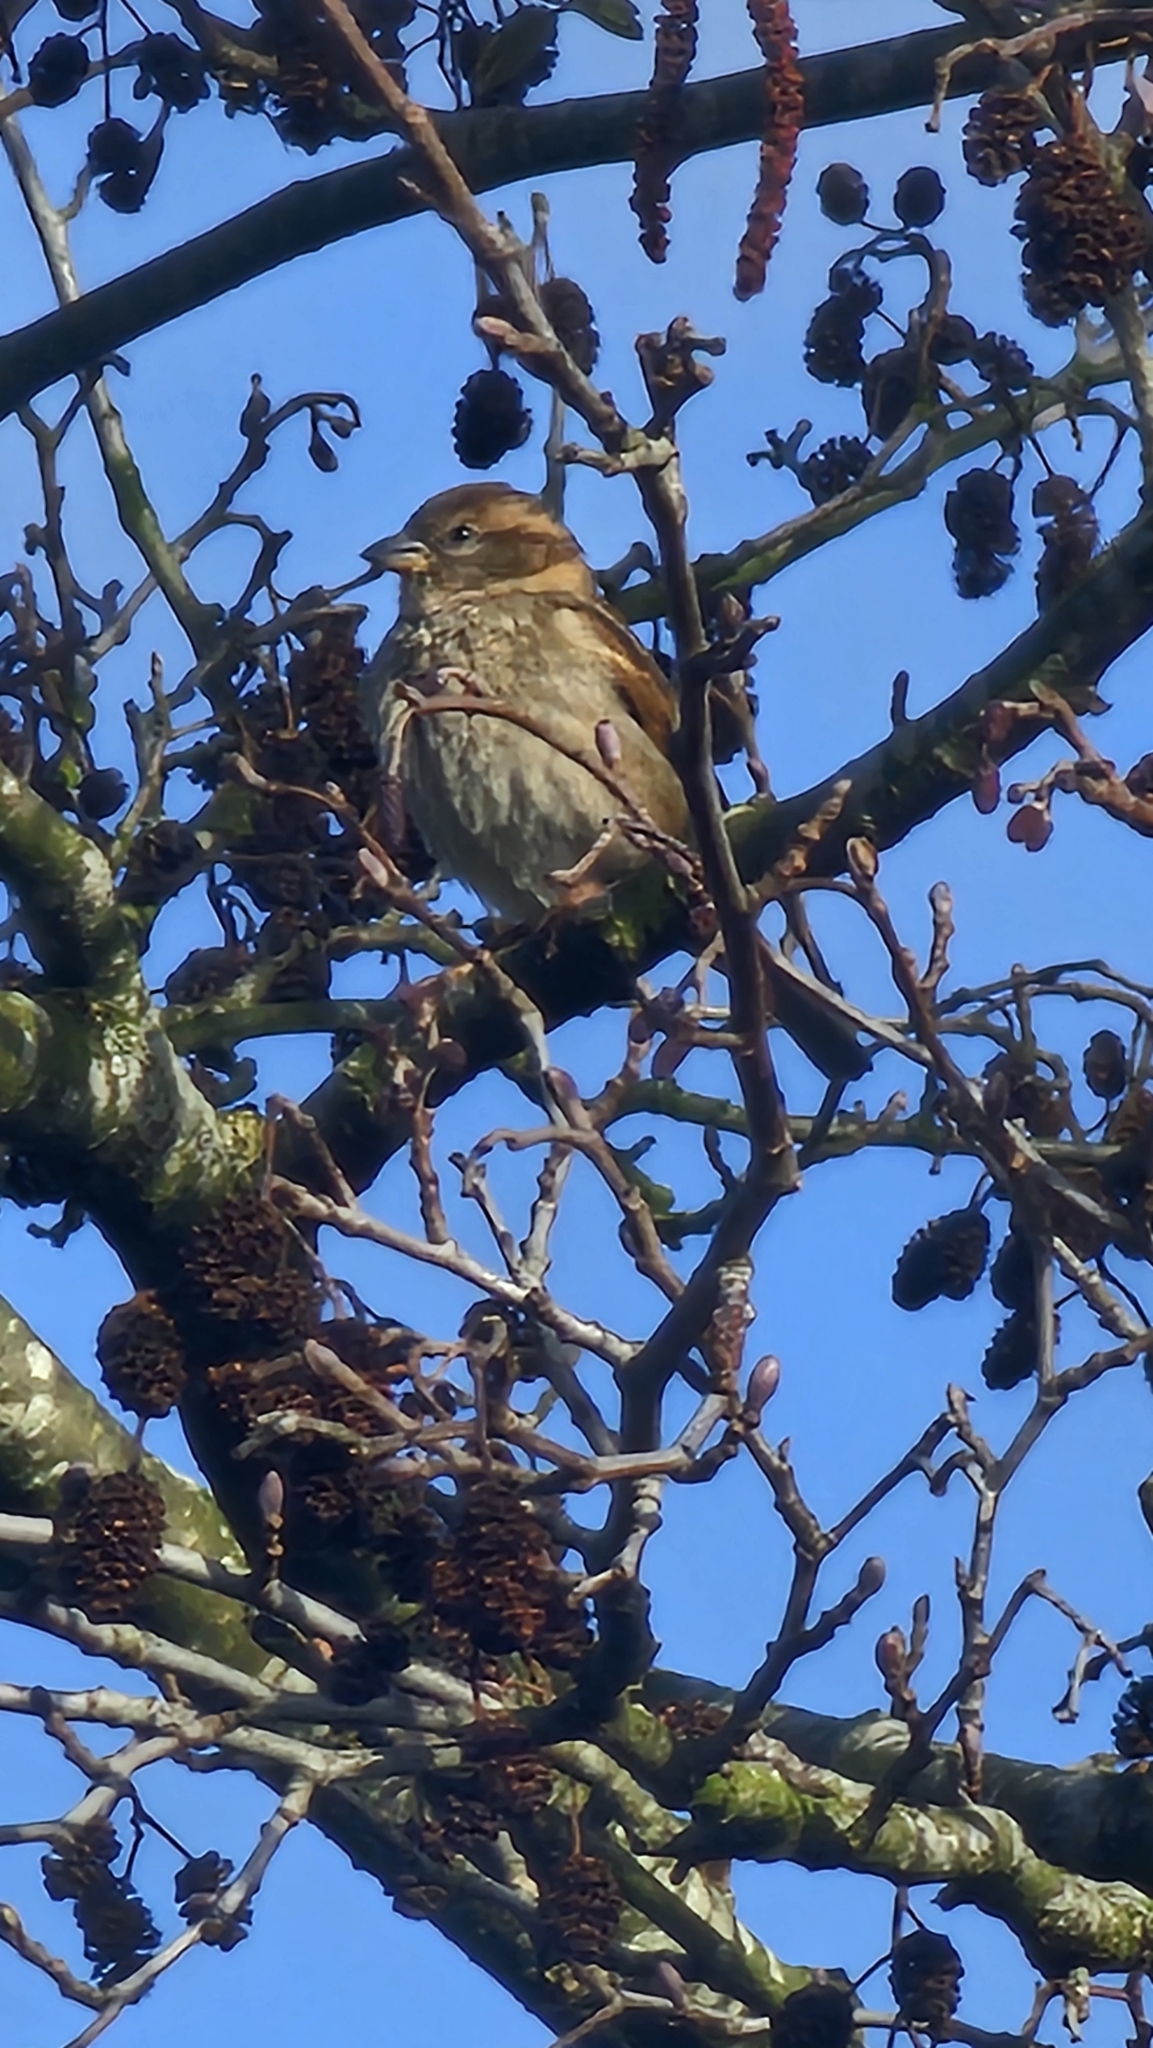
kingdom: Animalia
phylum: Chordata
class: Aves
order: Passeriformes
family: Passeridae
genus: Passer
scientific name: Passer domesticus
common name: House sparrow
